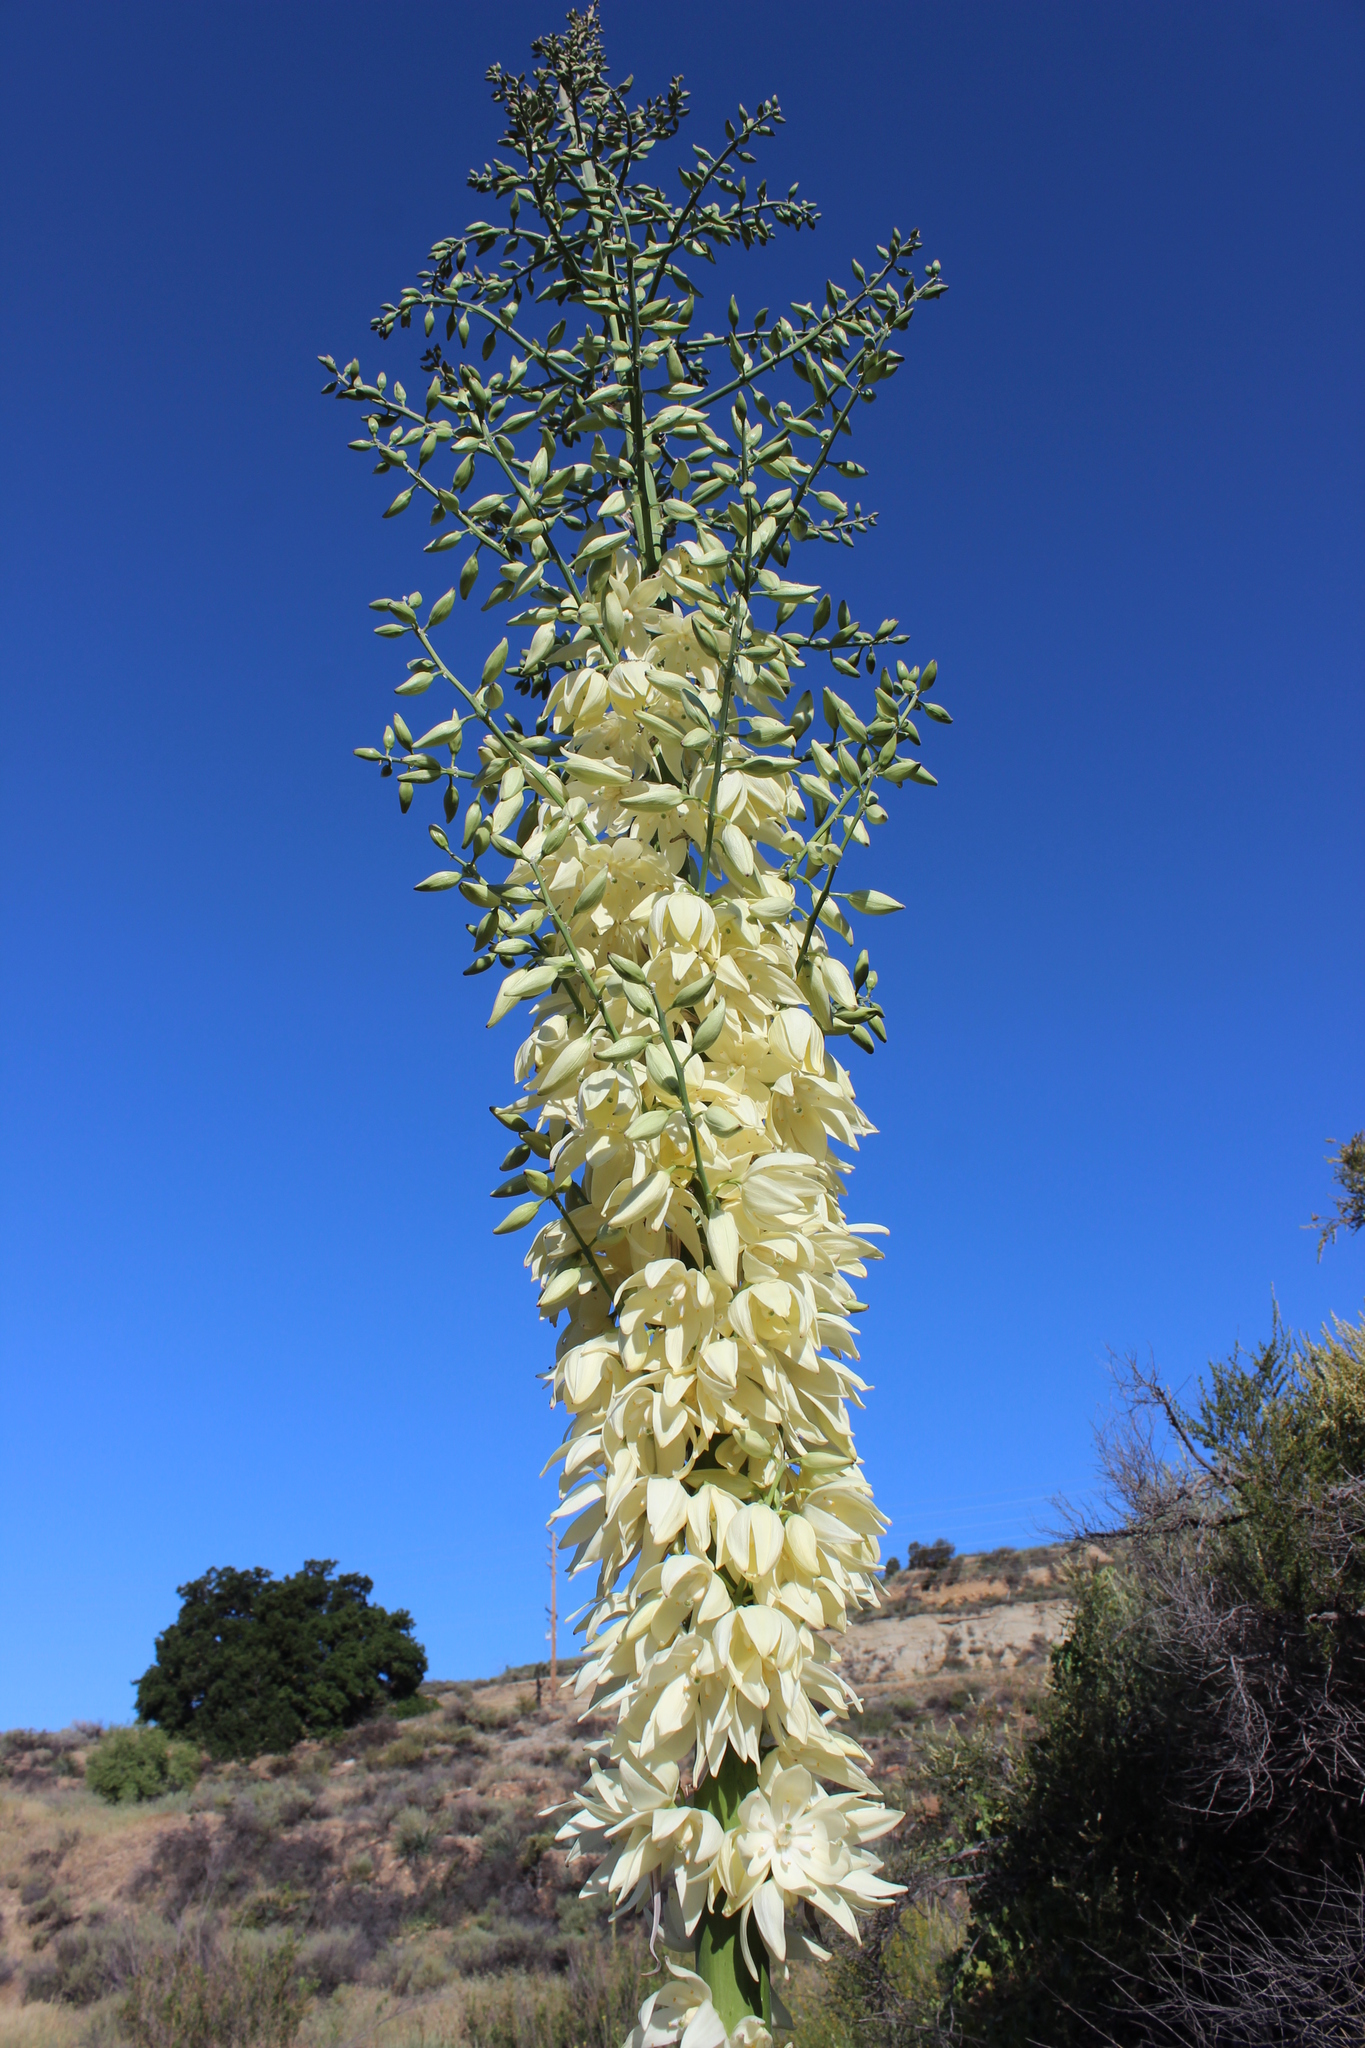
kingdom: Plantae
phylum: Tracheophyta
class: Liliopsida
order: Asparagales
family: Asparagaceae
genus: Hesperoyucca
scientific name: Hesperoyucca whipplei
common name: Our lord's-candle
